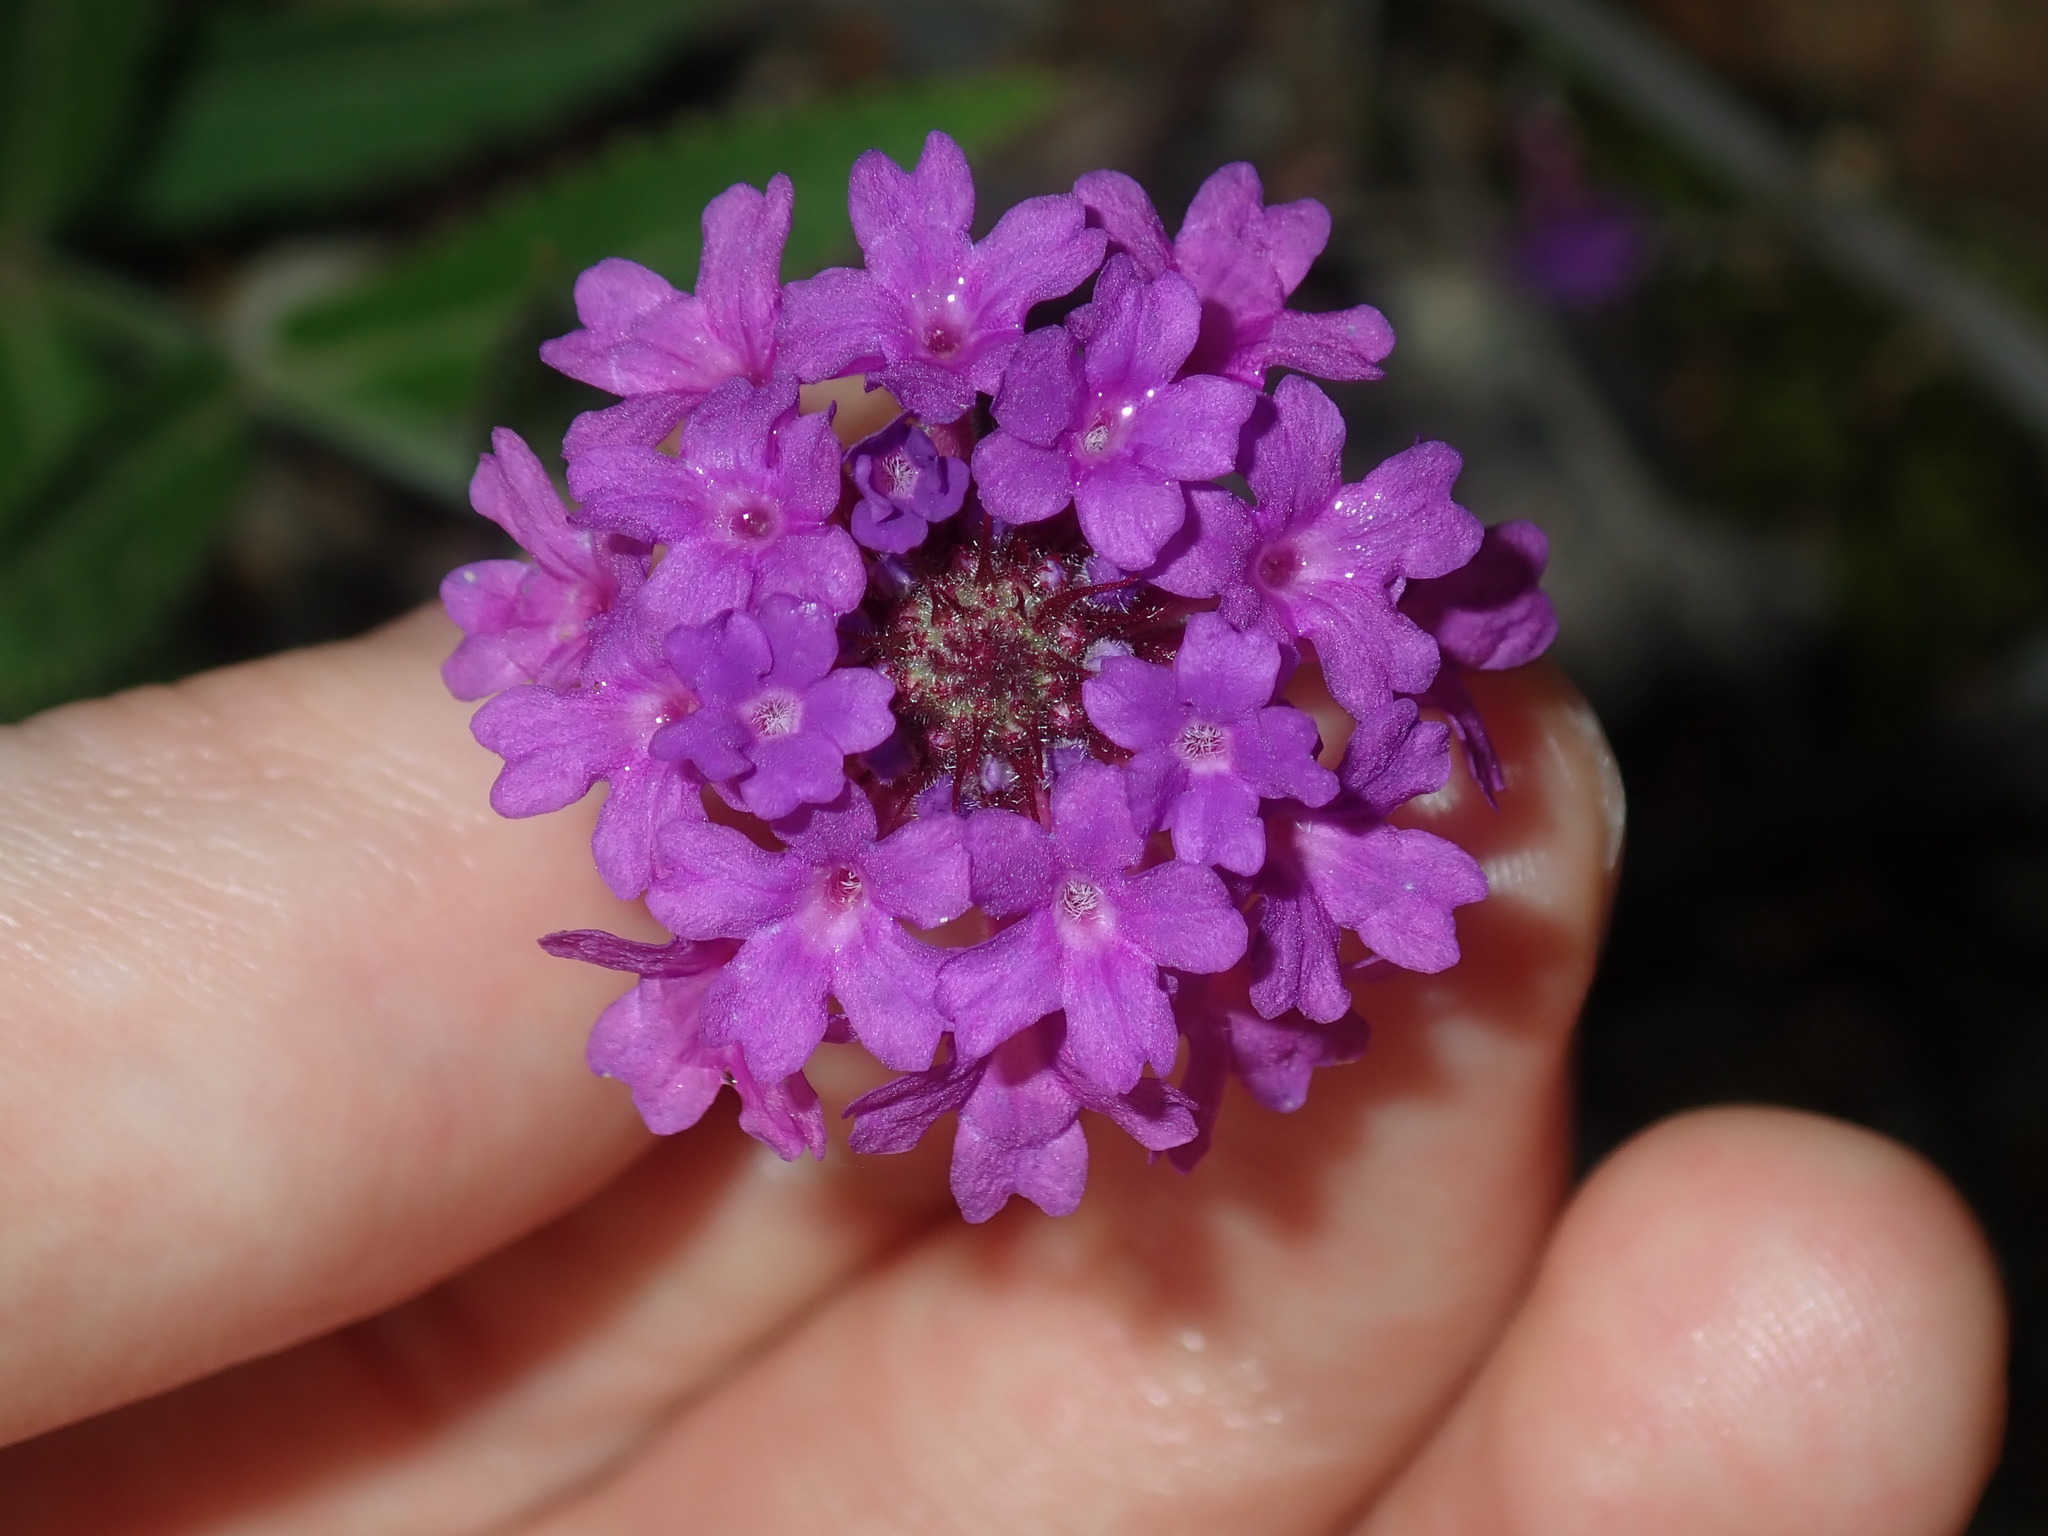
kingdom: Plantae
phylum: Tracheophyta
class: Magnoliopsida
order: Lamiales
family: Verbenaceae
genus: Verbena
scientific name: Verbena rigida
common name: Slender vervain
